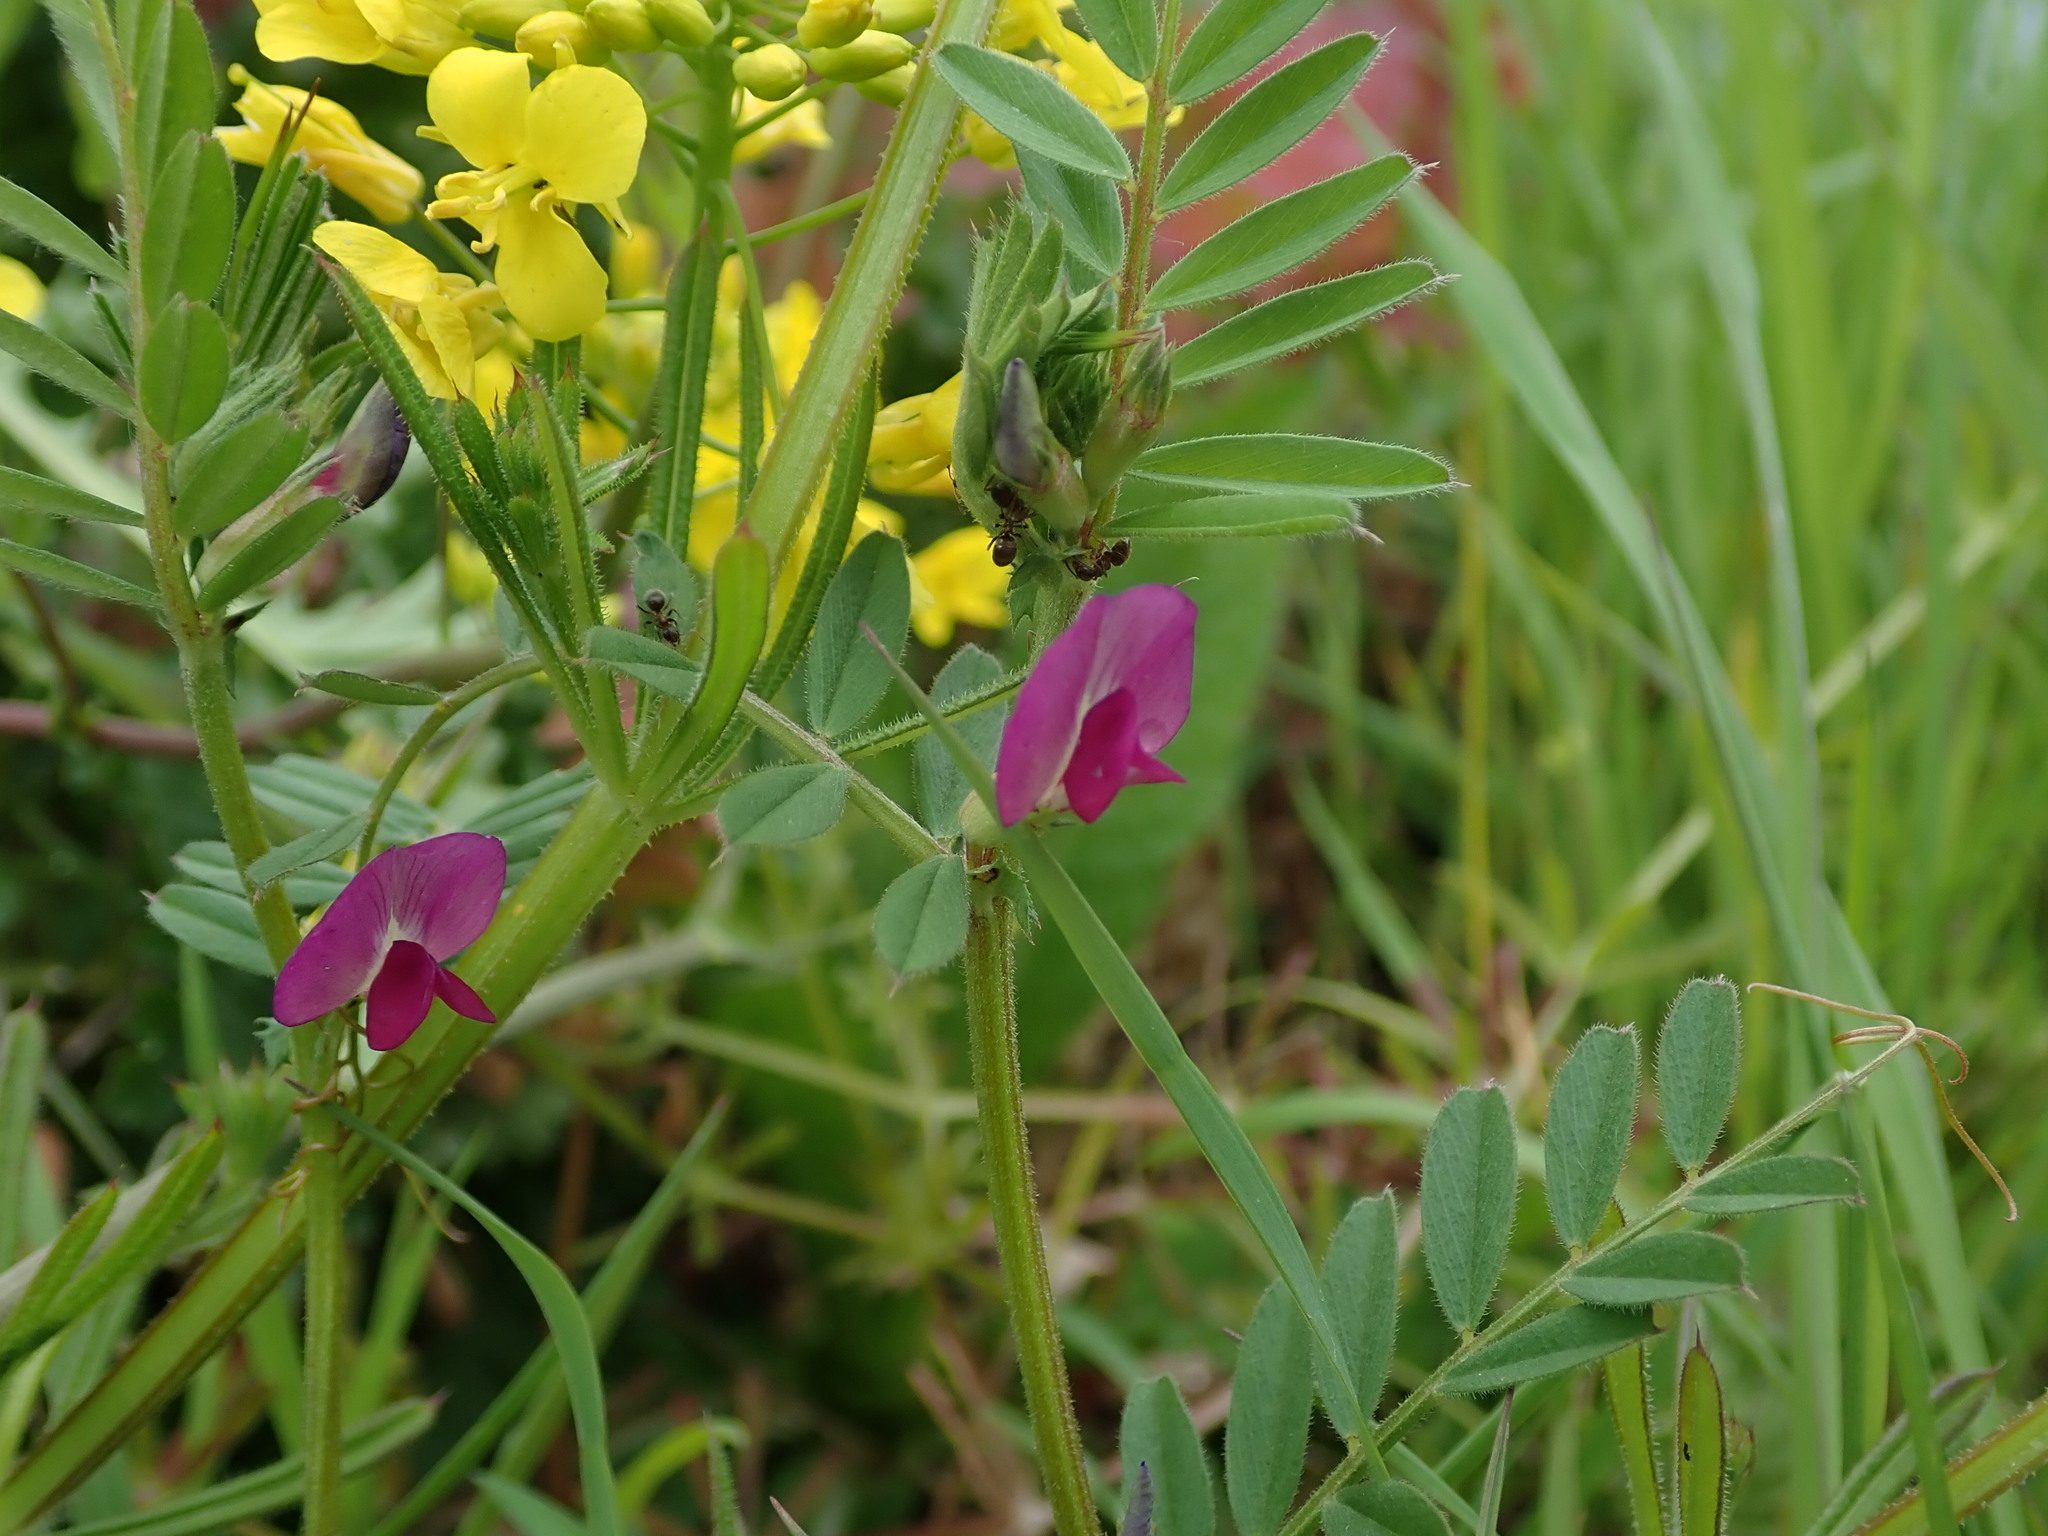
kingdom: Plantae
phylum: Tracheophyta
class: Magnoliopsida
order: Fabales
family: Fabaceae
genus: Vicia
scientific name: Vicia sativa
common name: Garden vetch
